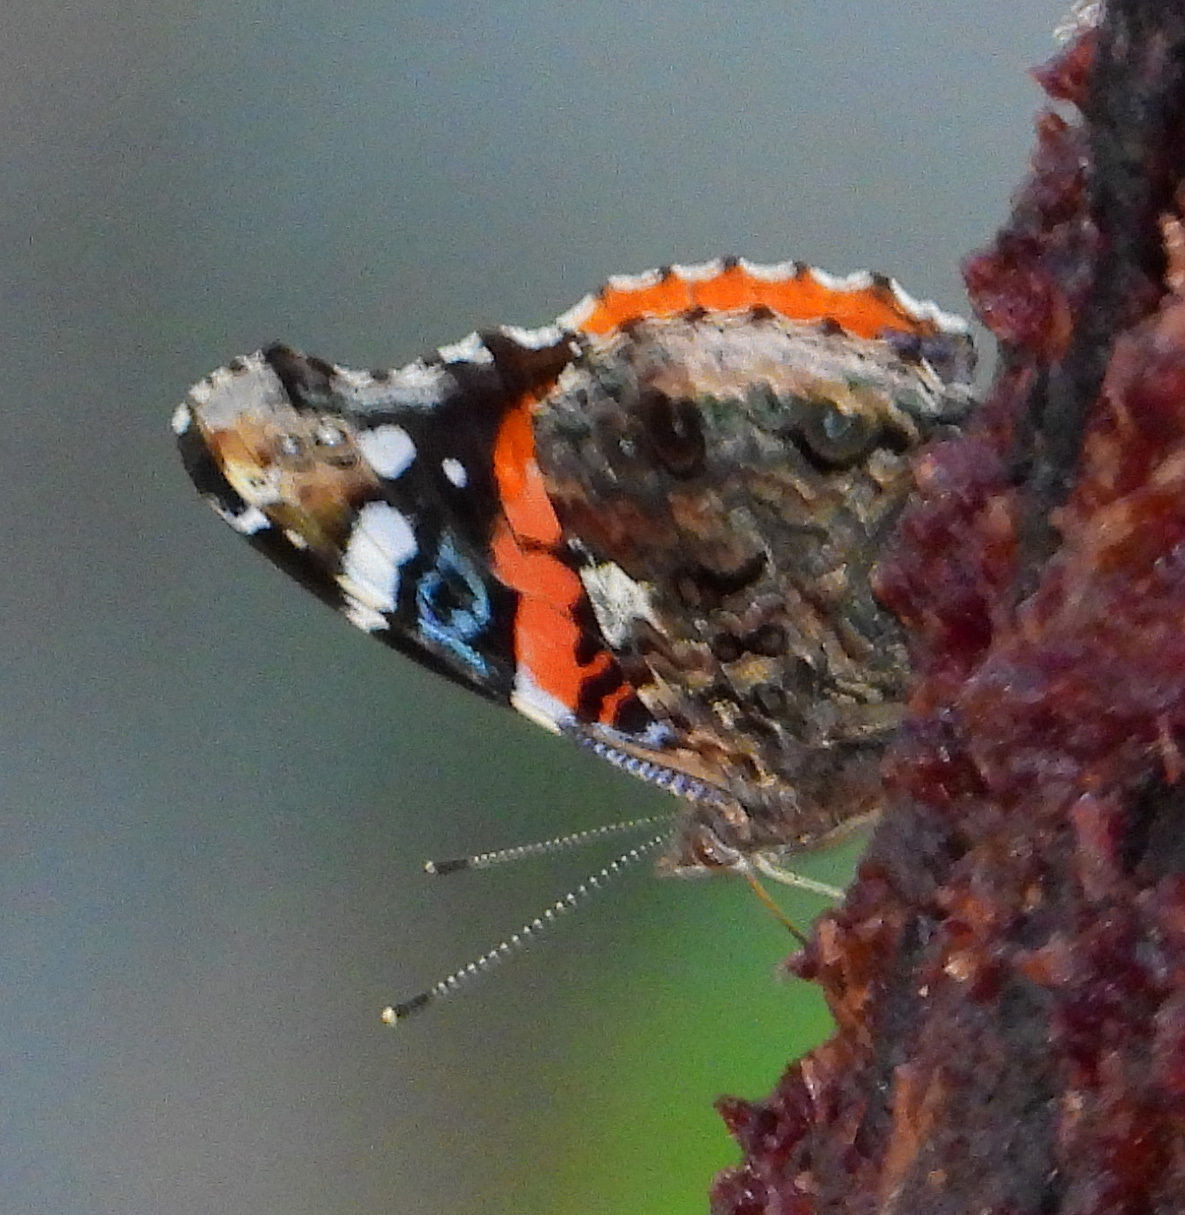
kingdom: Animalia
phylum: Arthropoda
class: Insecta
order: Lepidoptera
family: Nymphalidae
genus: Vanessa
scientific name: Vanessa atalanta
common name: Red admiral
